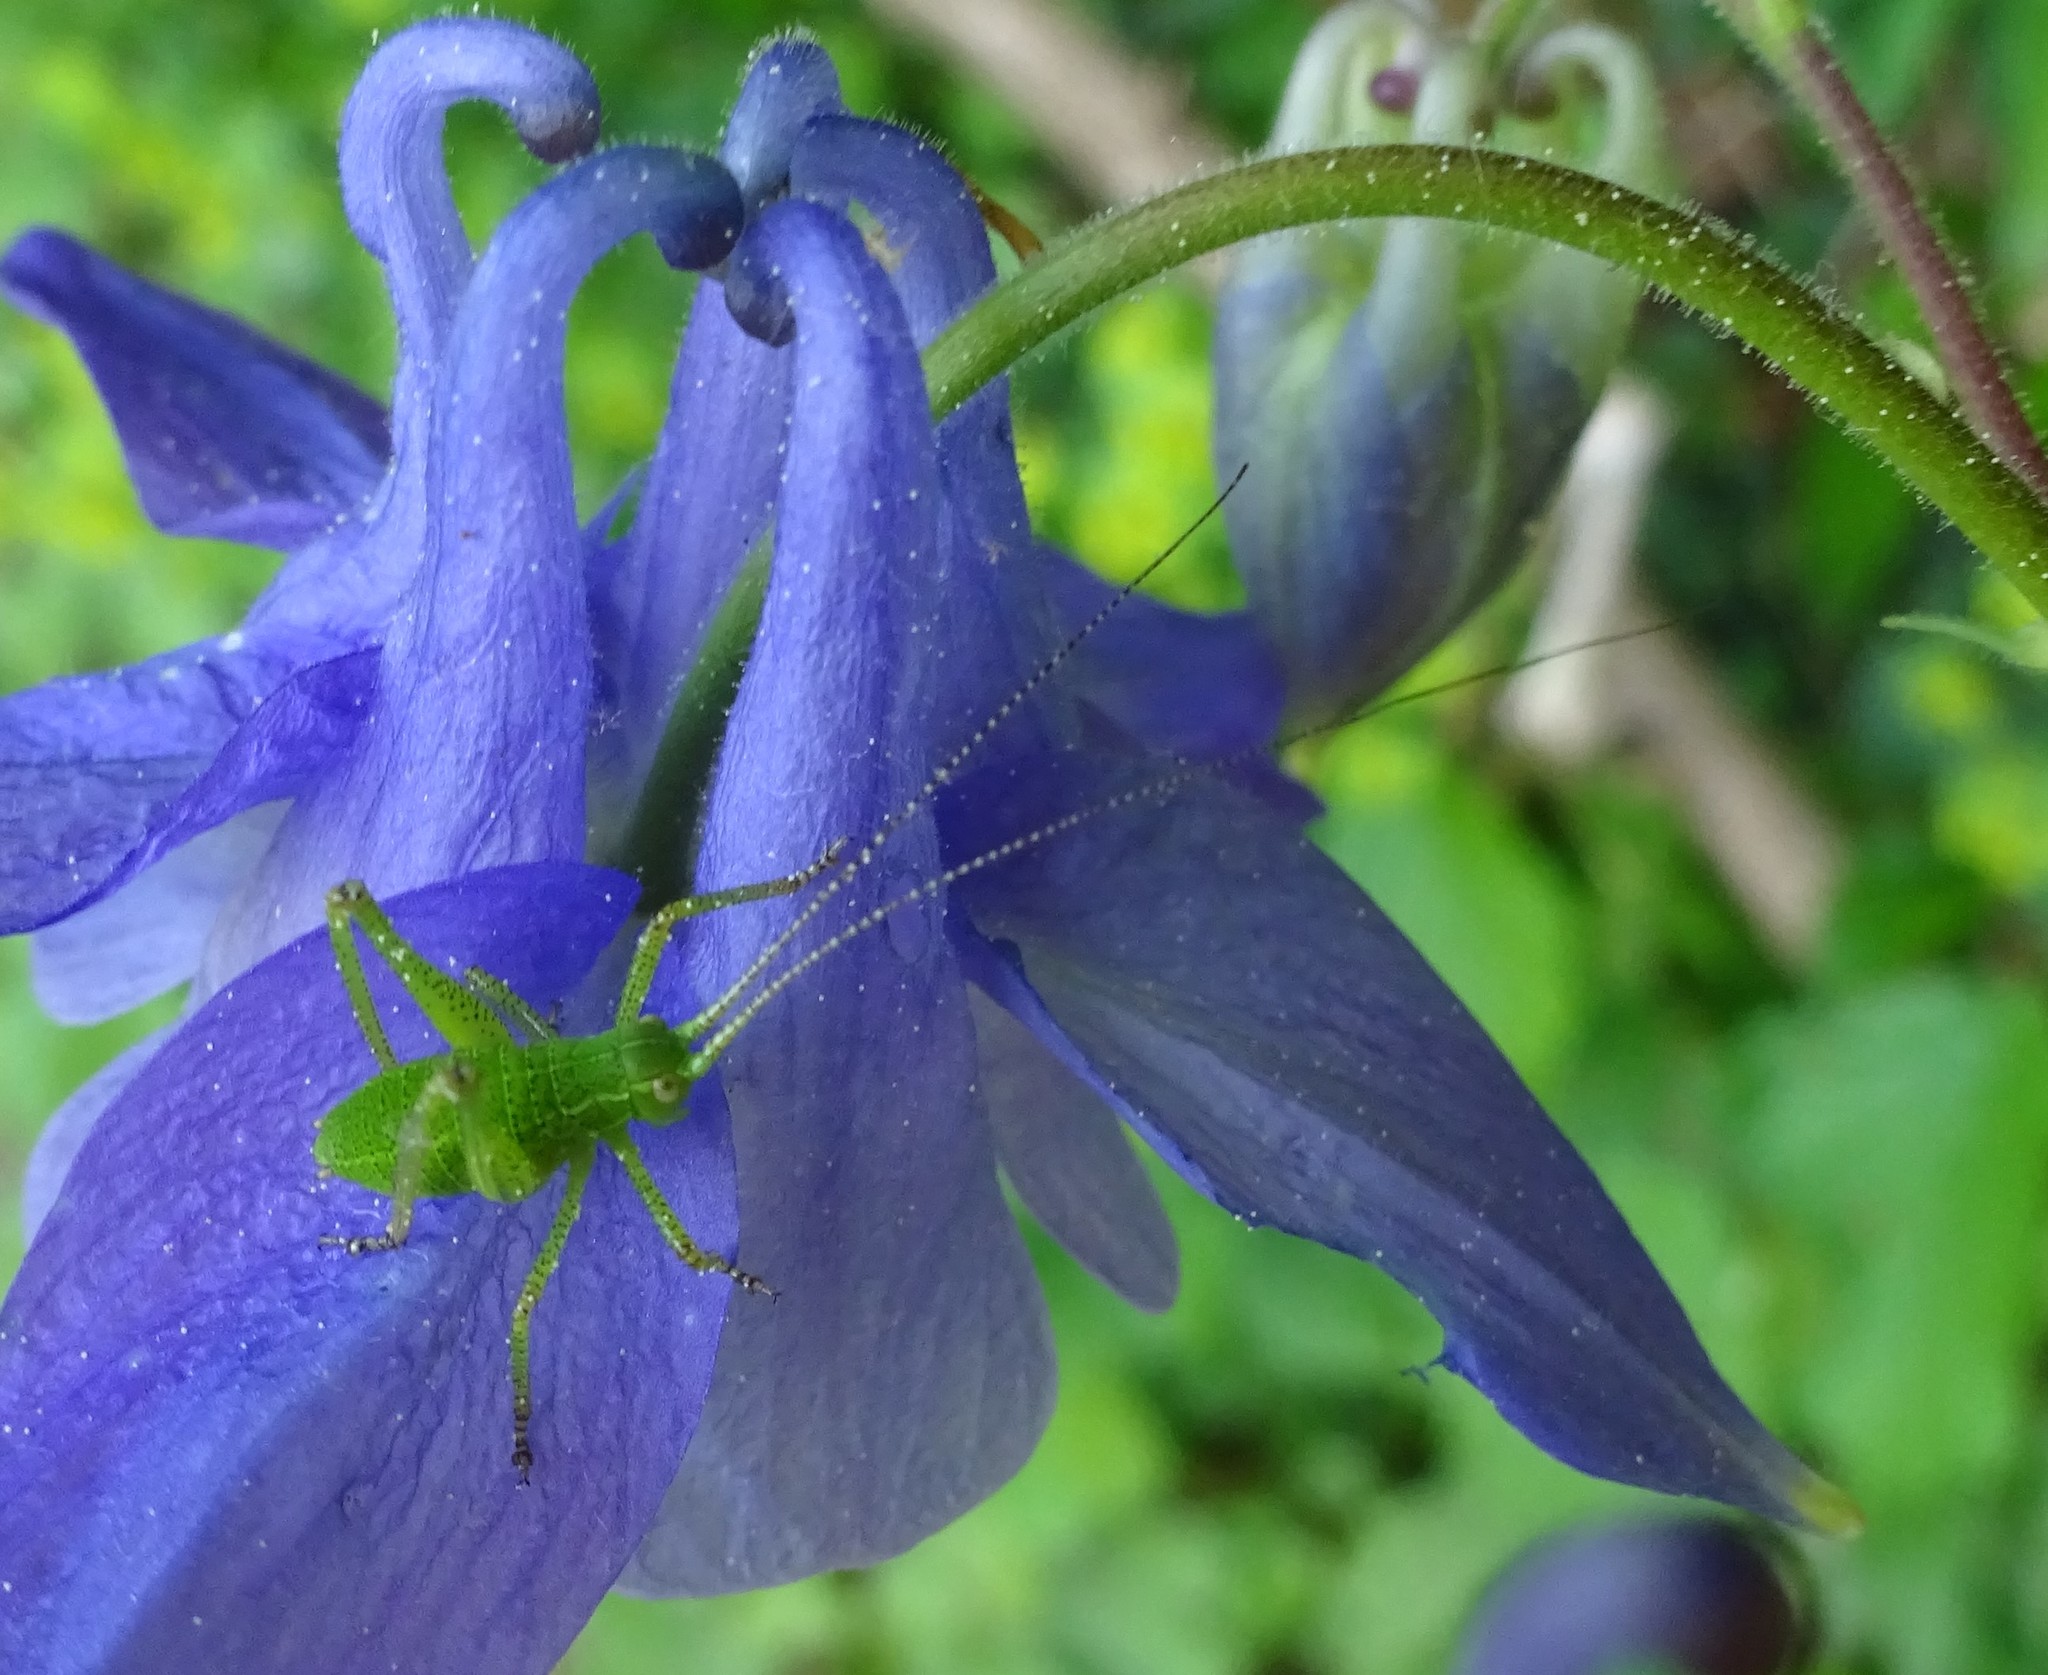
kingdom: Animalia
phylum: Arthropoda
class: Insecta
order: Orthoptera
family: Tettigoniidae
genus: Barbitistes
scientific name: Barbitistes serricauda
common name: Saw-tailed bush-cricket
